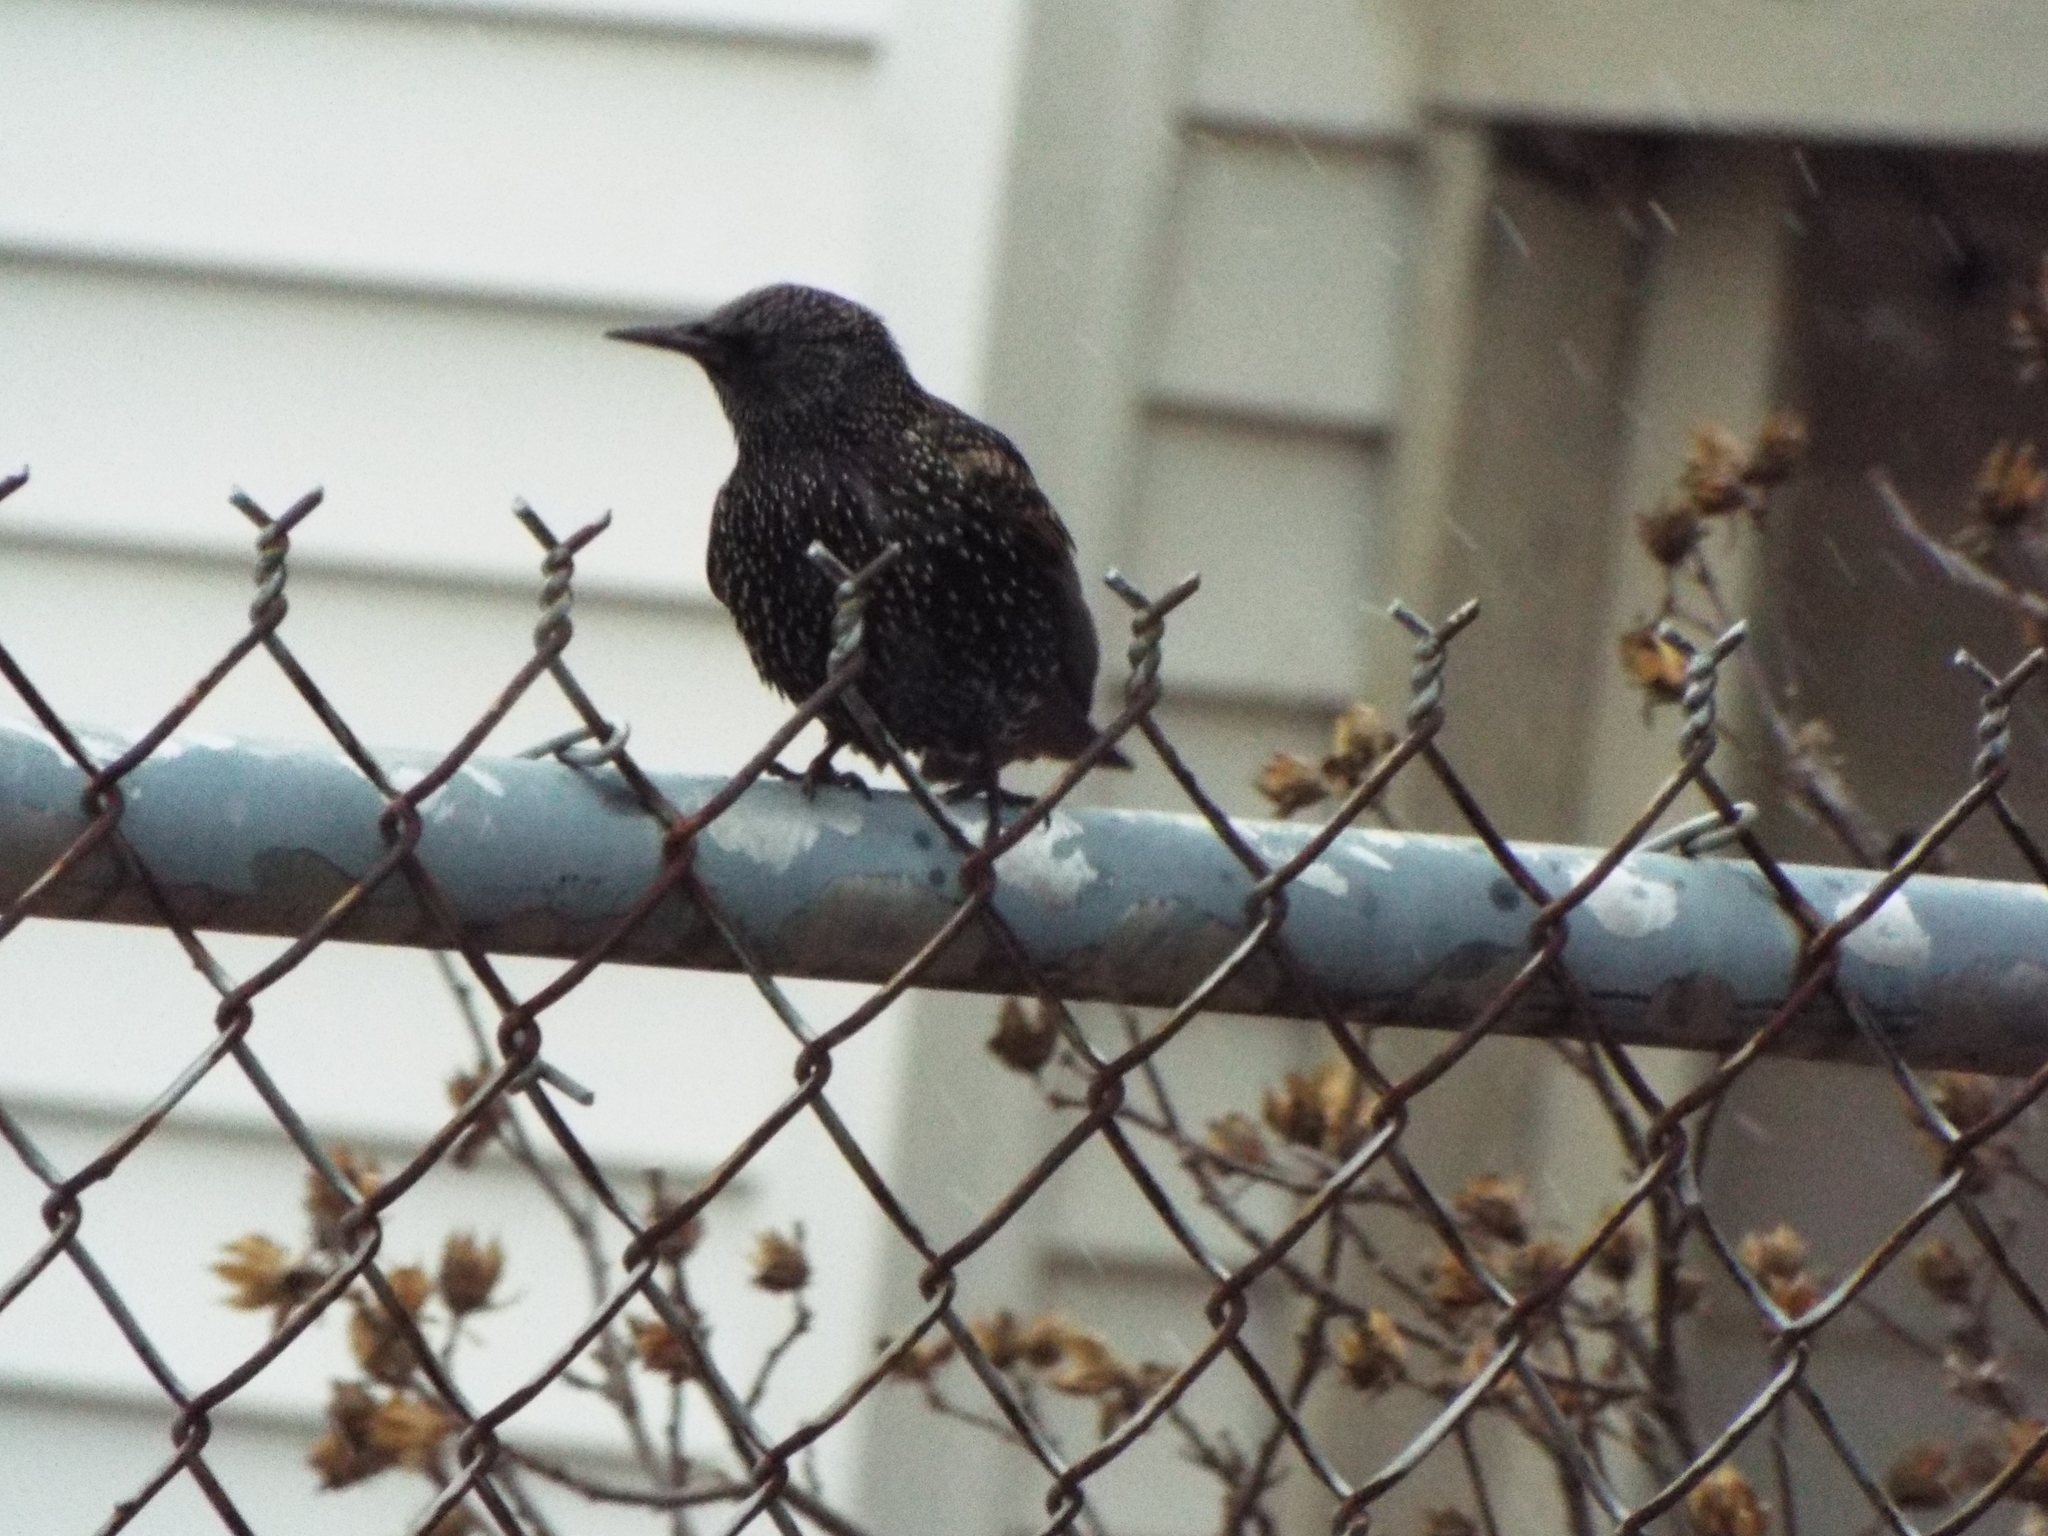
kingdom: Animalia
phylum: Chordata
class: Aves
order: Passeriformes
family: Sturnidae
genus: Sturnus
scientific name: Sturnus vulgaris
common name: Common starling
